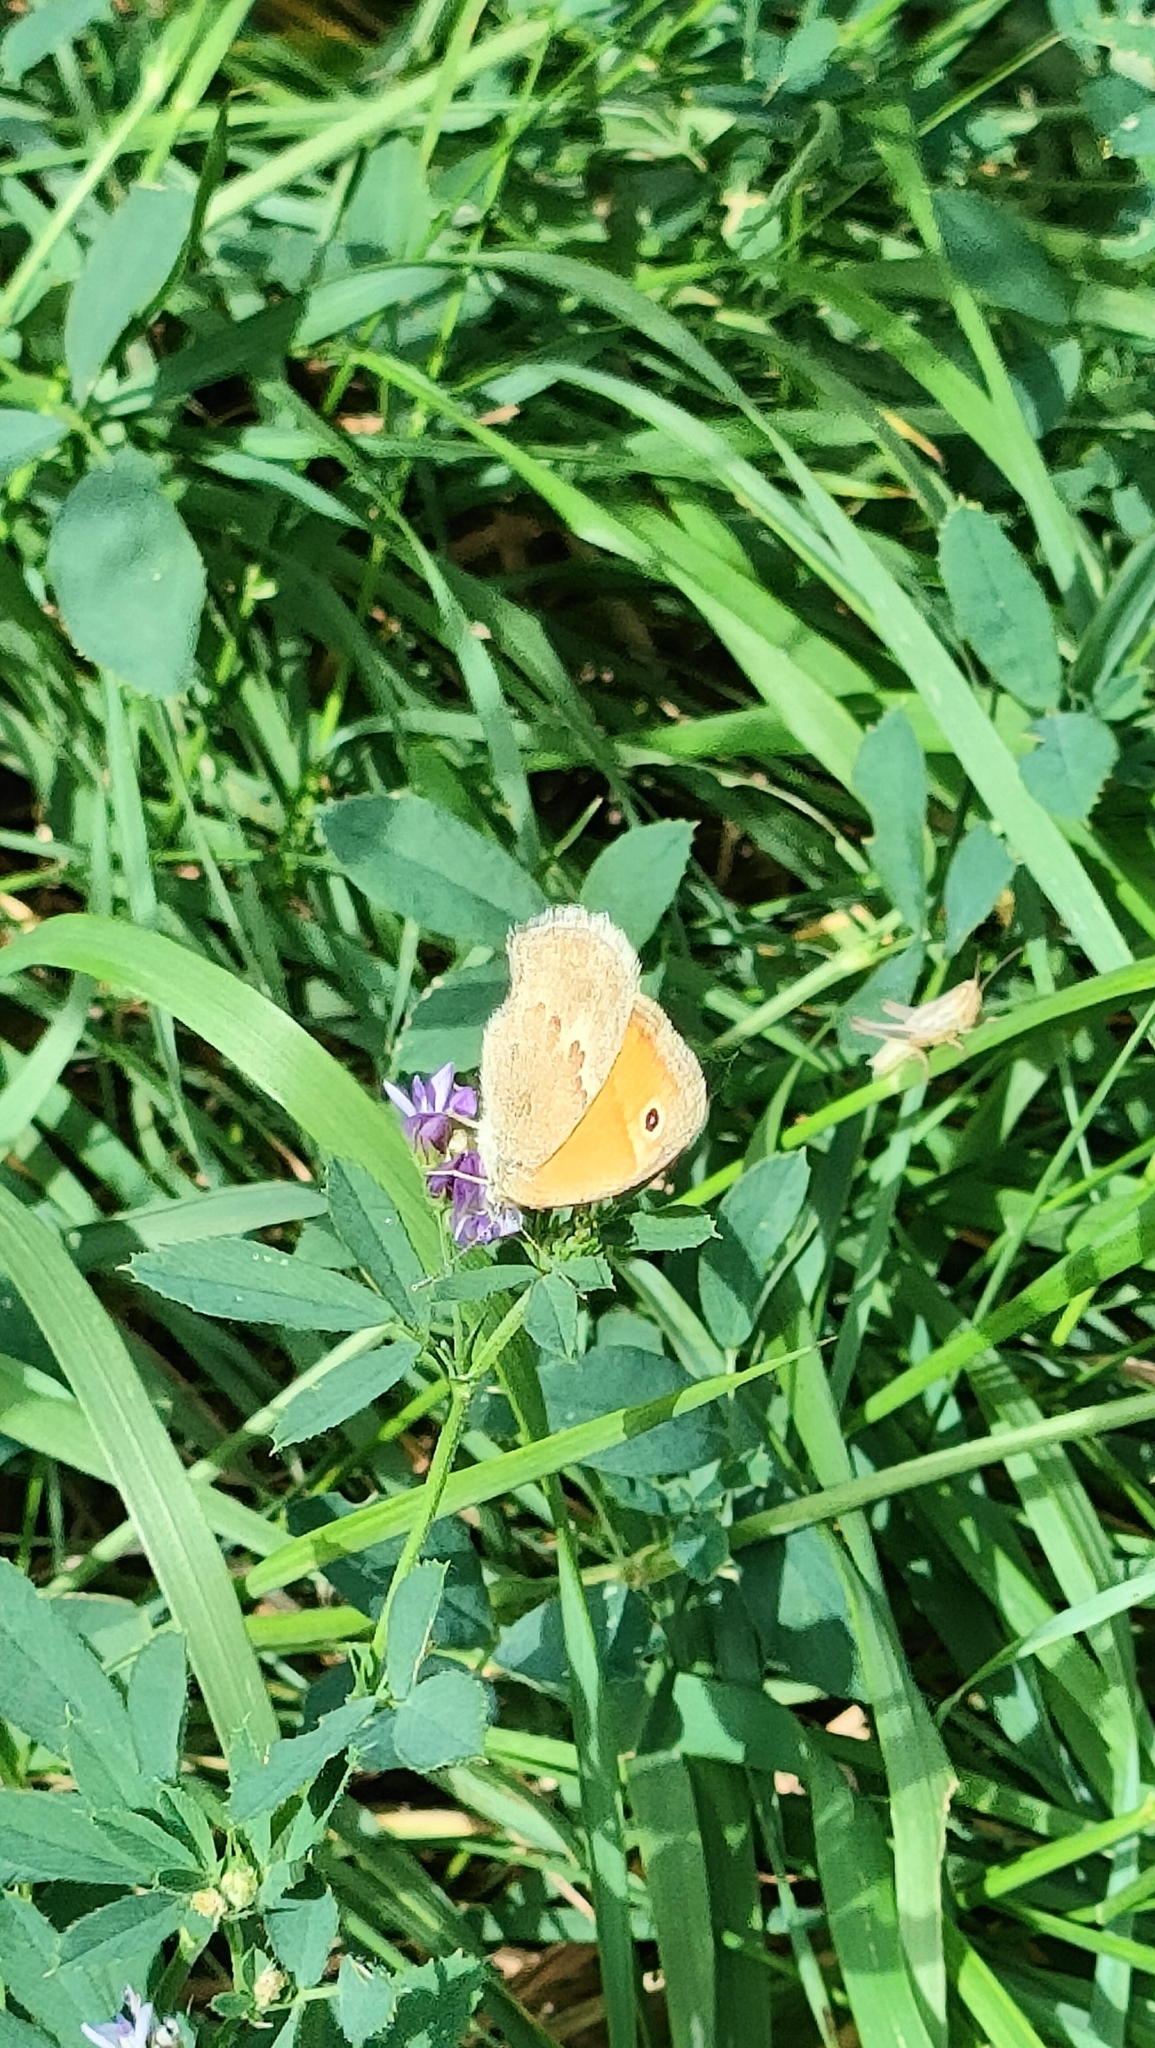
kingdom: Animalia
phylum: Arthropoda
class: Insecta
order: Lepidoptera
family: Nymphalidae
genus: Coenonympha
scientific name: Coenonympha pamphilus
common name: Small heath
